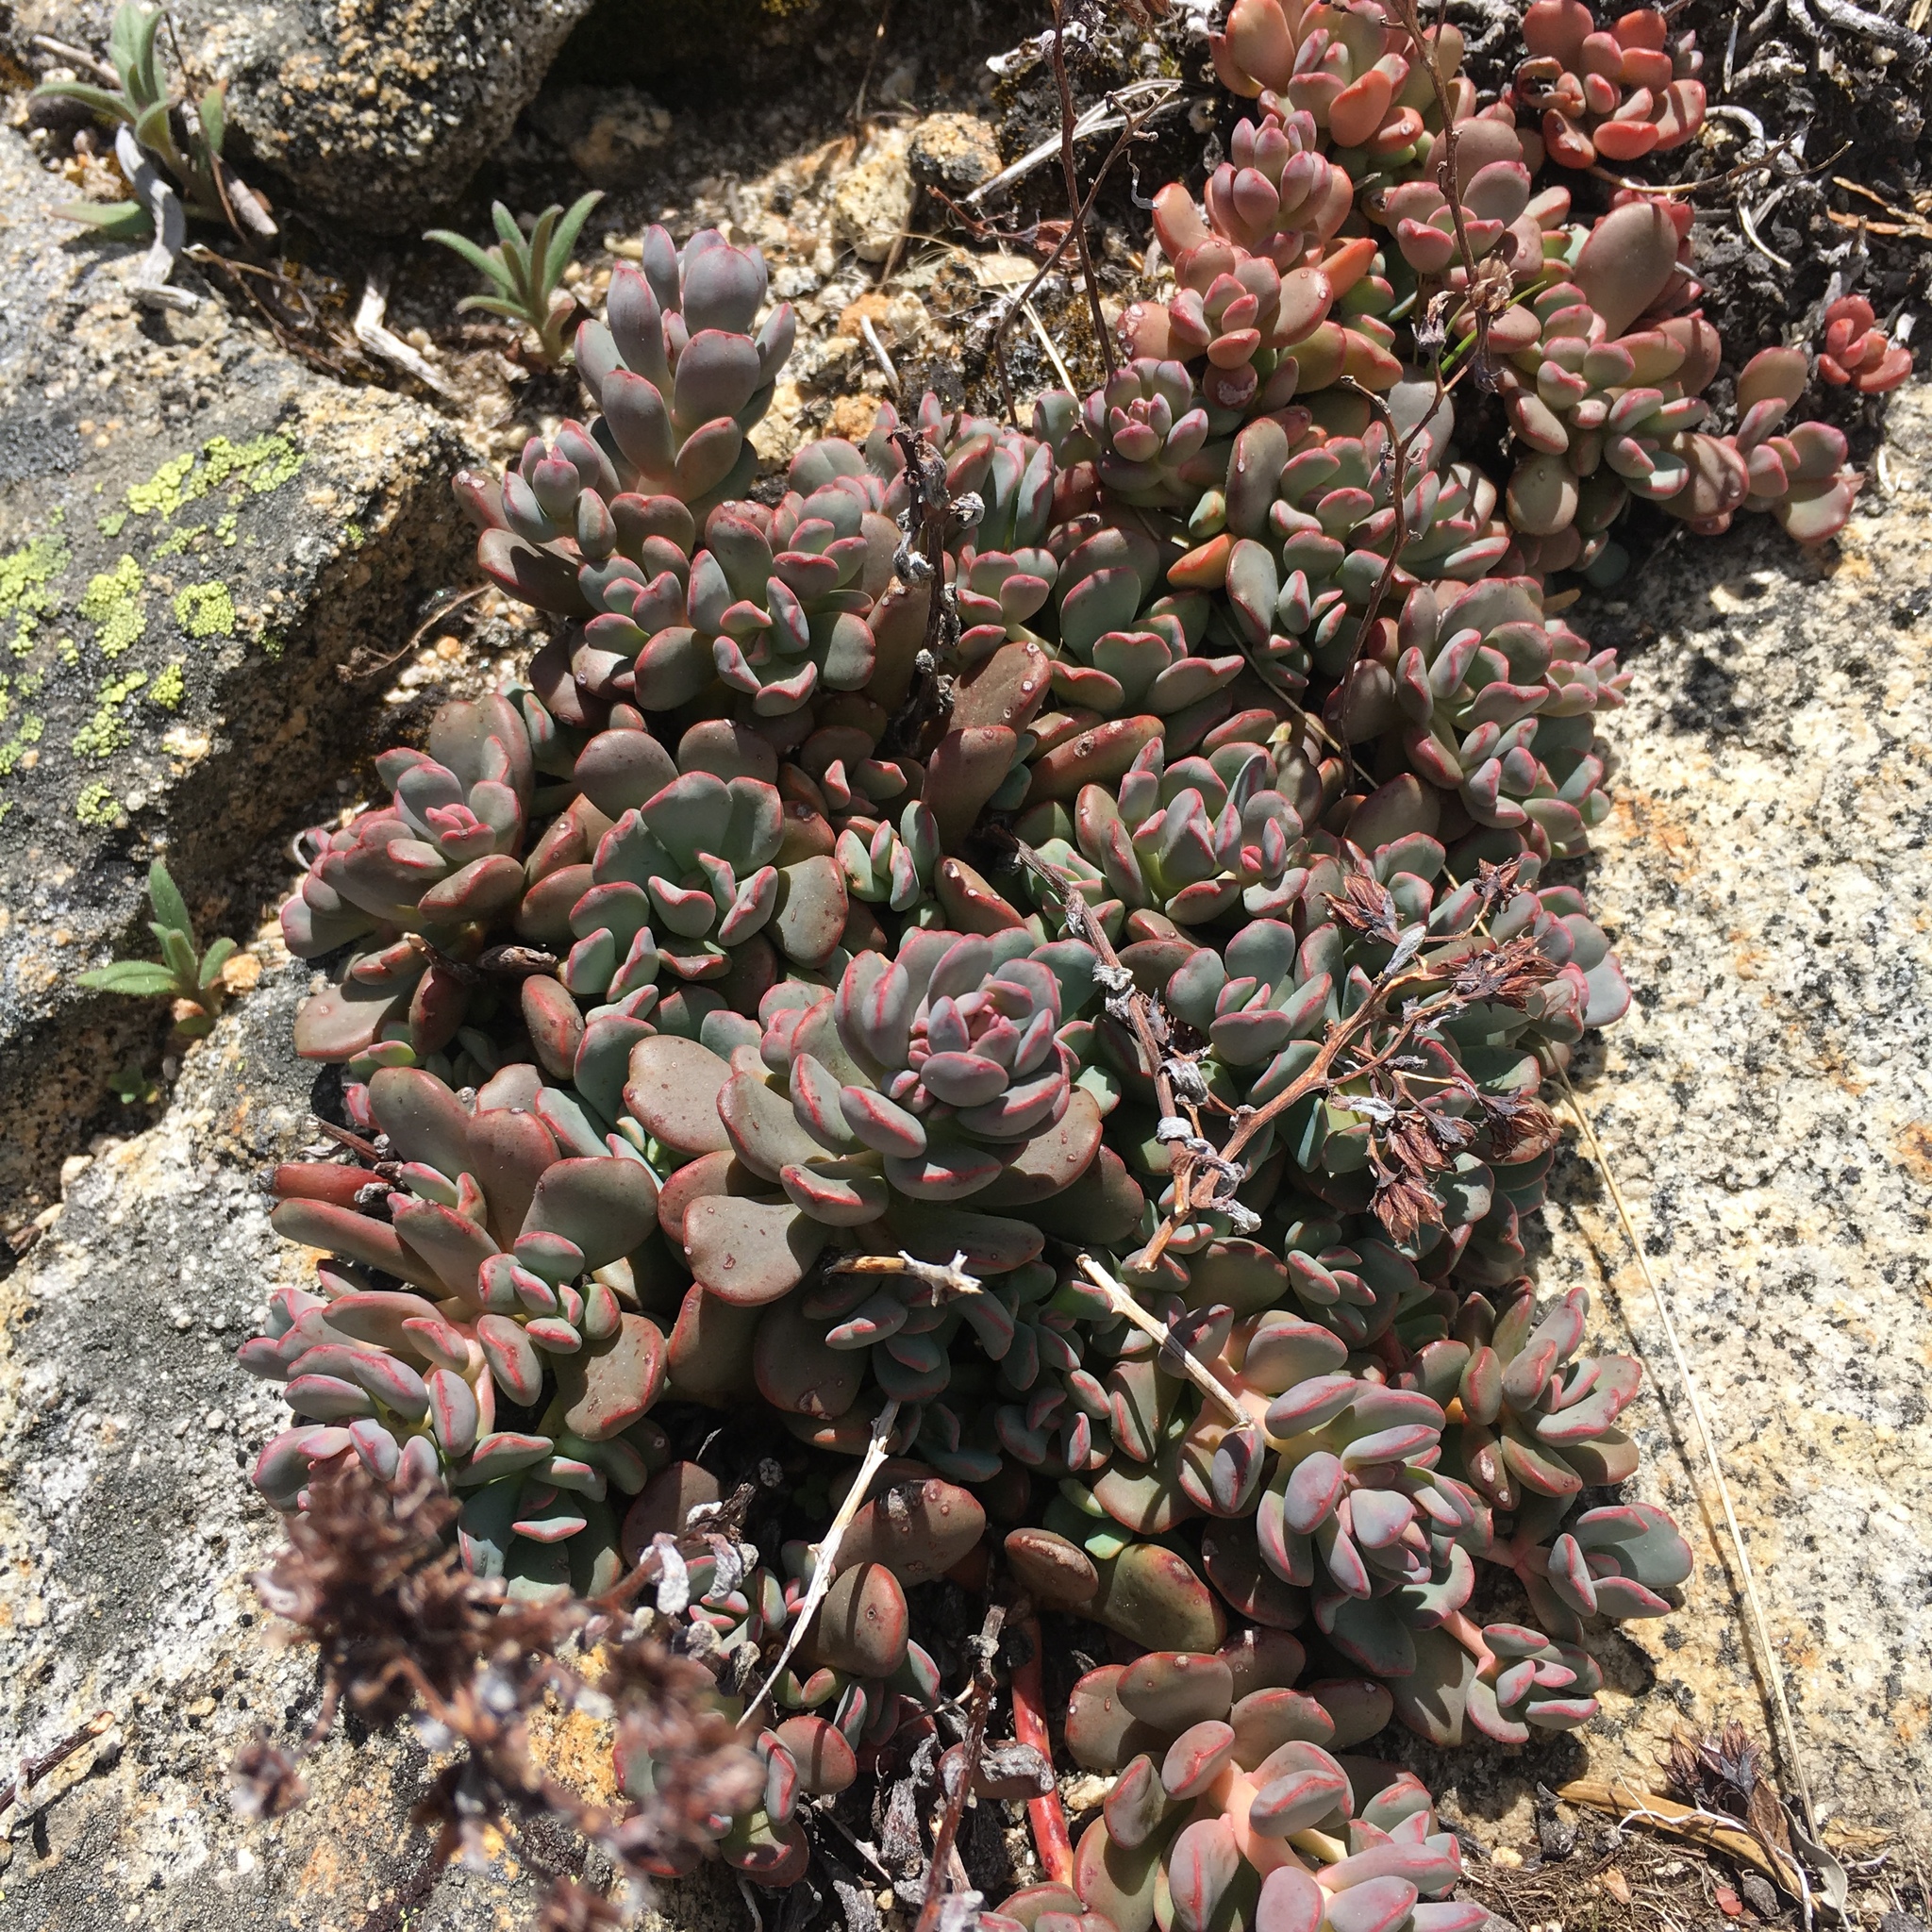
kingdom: Plantae
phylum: Tracheophyta
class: Magnoliopsida
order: Saxifragales
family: Crassulaceae
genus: Sedum
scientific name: Sedum obtusatum
